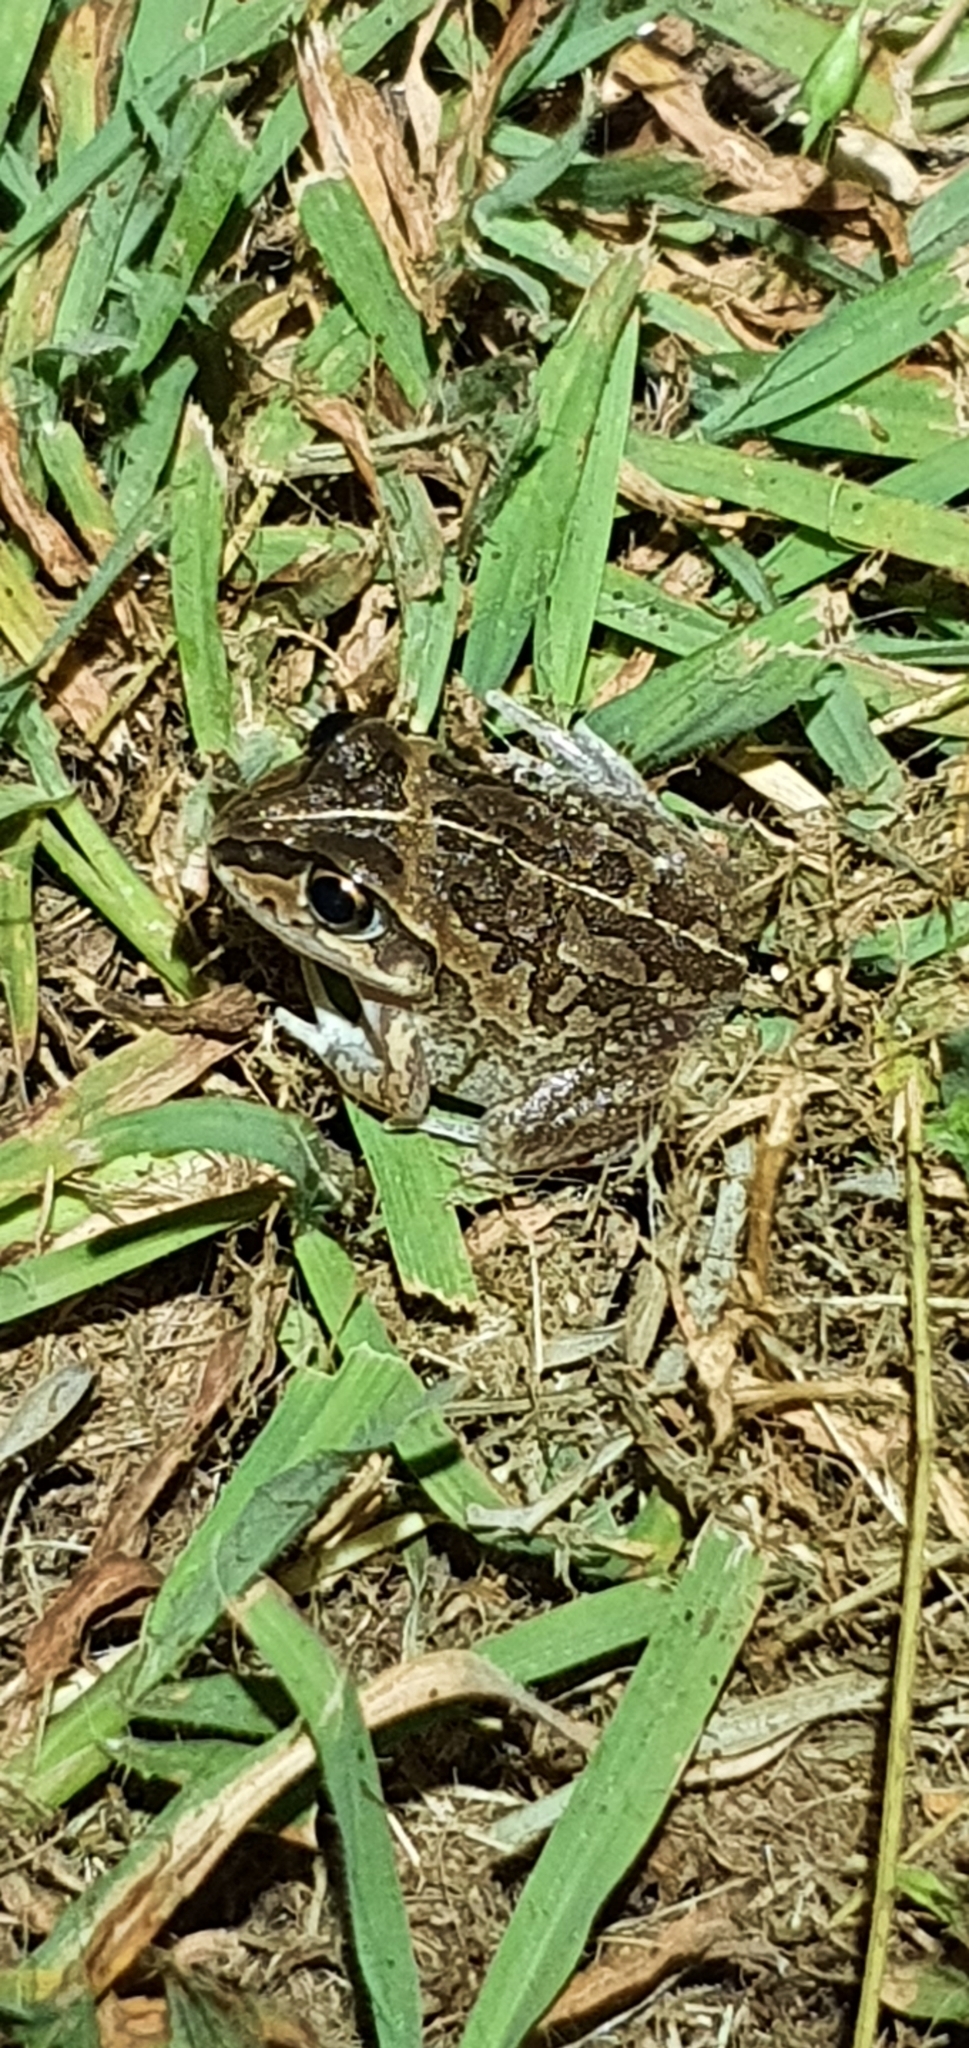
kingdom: Animalia
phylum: Chordata
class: Amphibia
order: Anura
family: Pelodryadidae
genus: Ranoidea
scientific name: Ranoidea brevipes
